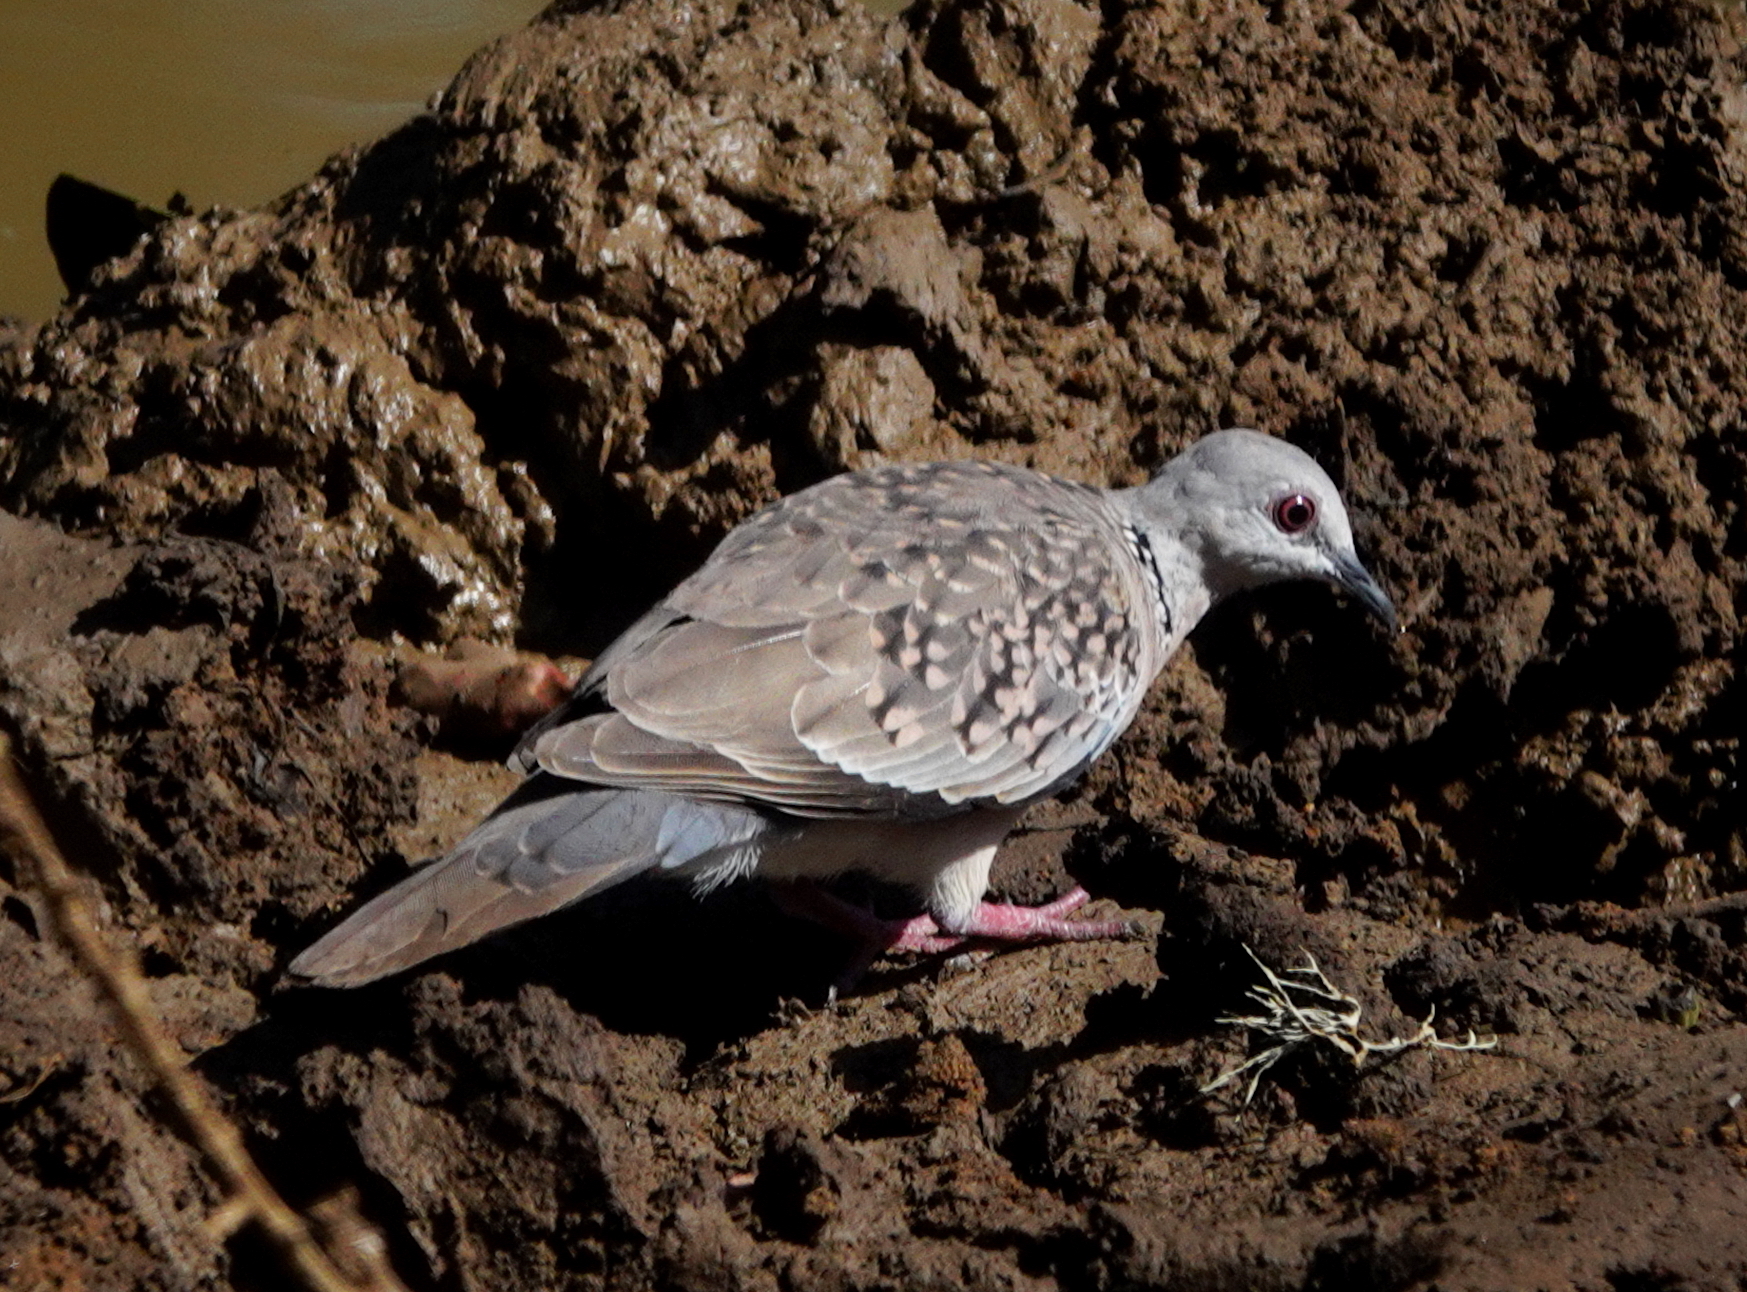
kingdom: Animalia
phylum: Chordata
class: Aves
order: Columbiformes
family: Columbidae
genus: Spilopelia
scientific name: Spilopelia chinensis
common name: Spotted dove
